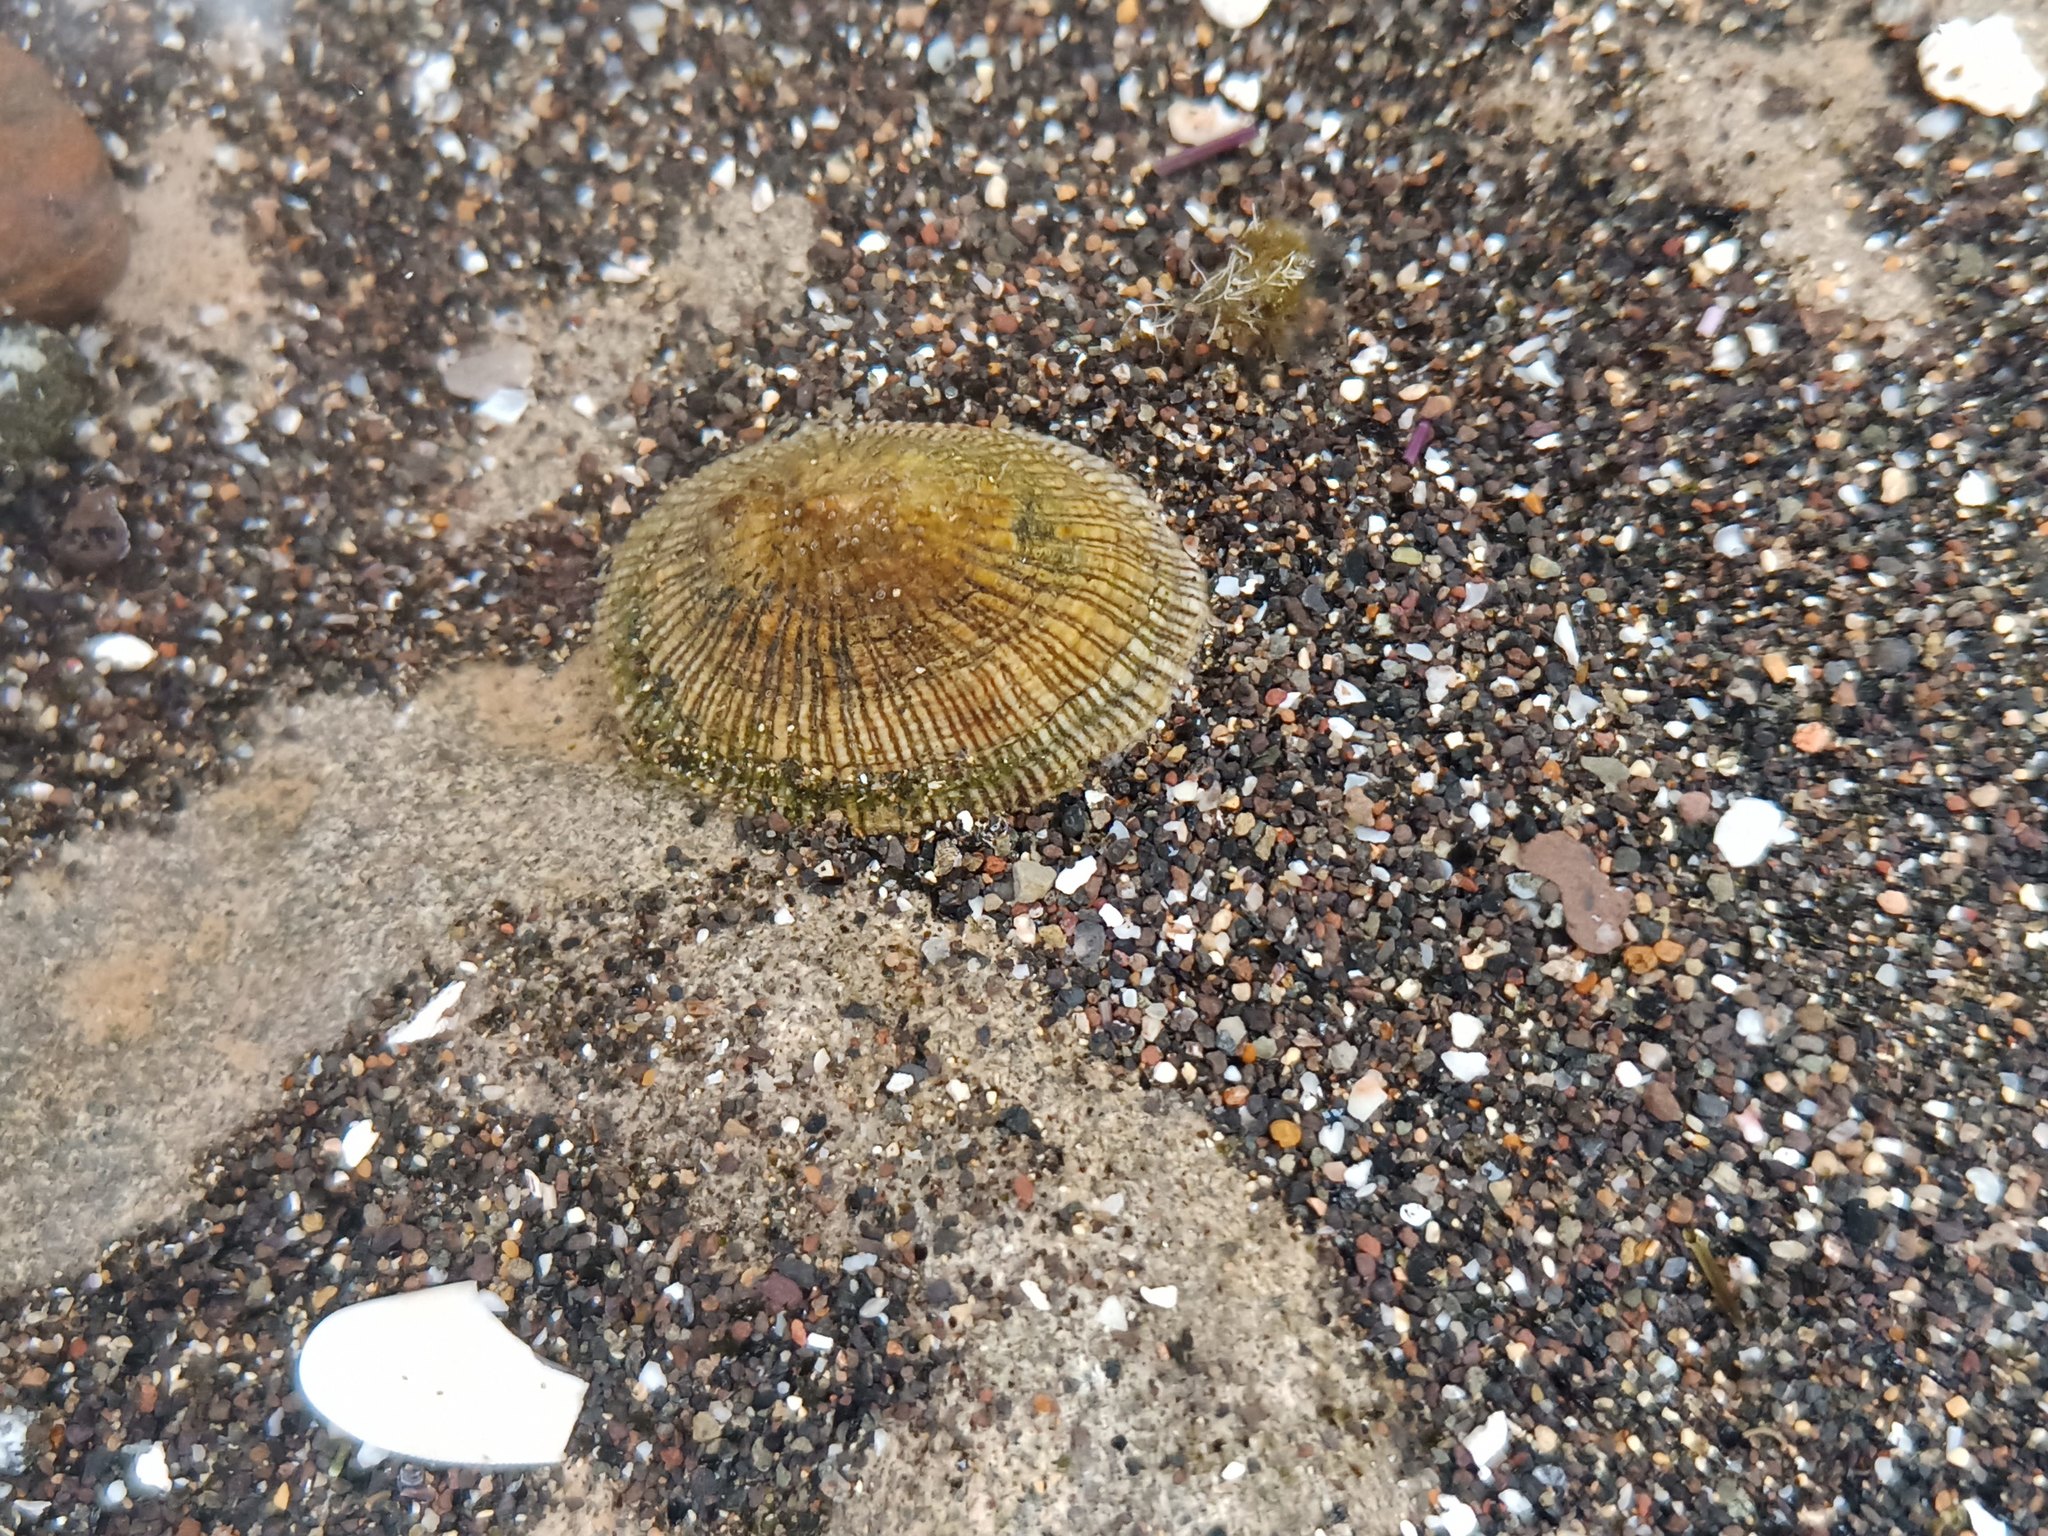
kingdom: Animalia
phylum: Mollusca
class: Gastropoda
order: Siphonariida
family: Siphonariidae
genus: Siphonaria
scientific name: Siphonaria pectinata
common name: Striped false limpet
